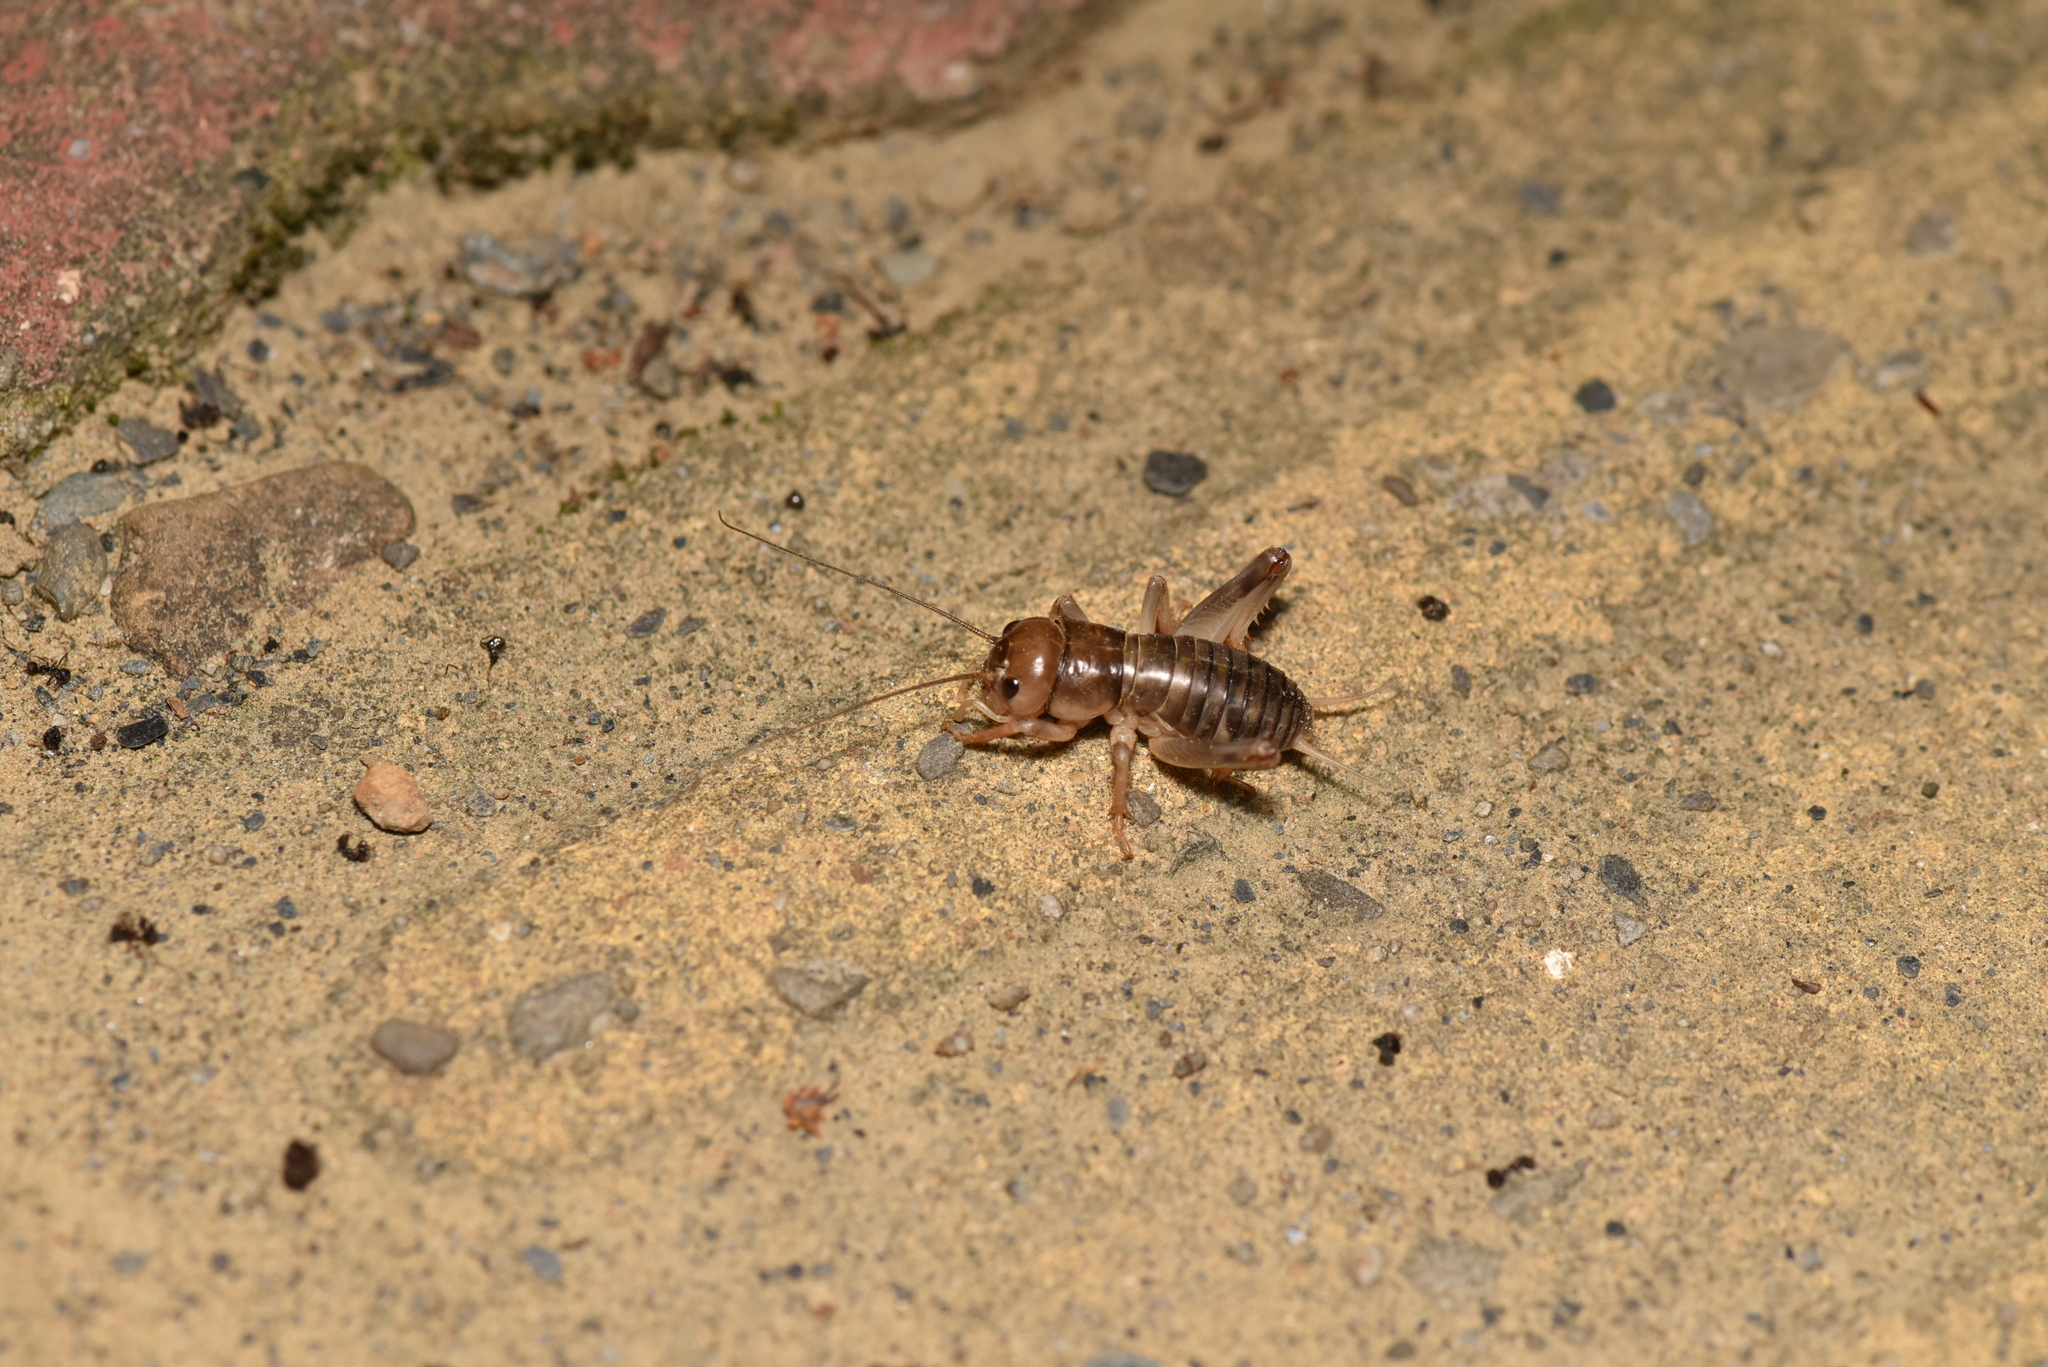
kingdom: Animalia
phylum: Arthropoda
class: Insecta
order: Orthoptera
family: Gryllidae
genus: Tarbinskiellus
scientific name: Tarbinskiellus portentosus
